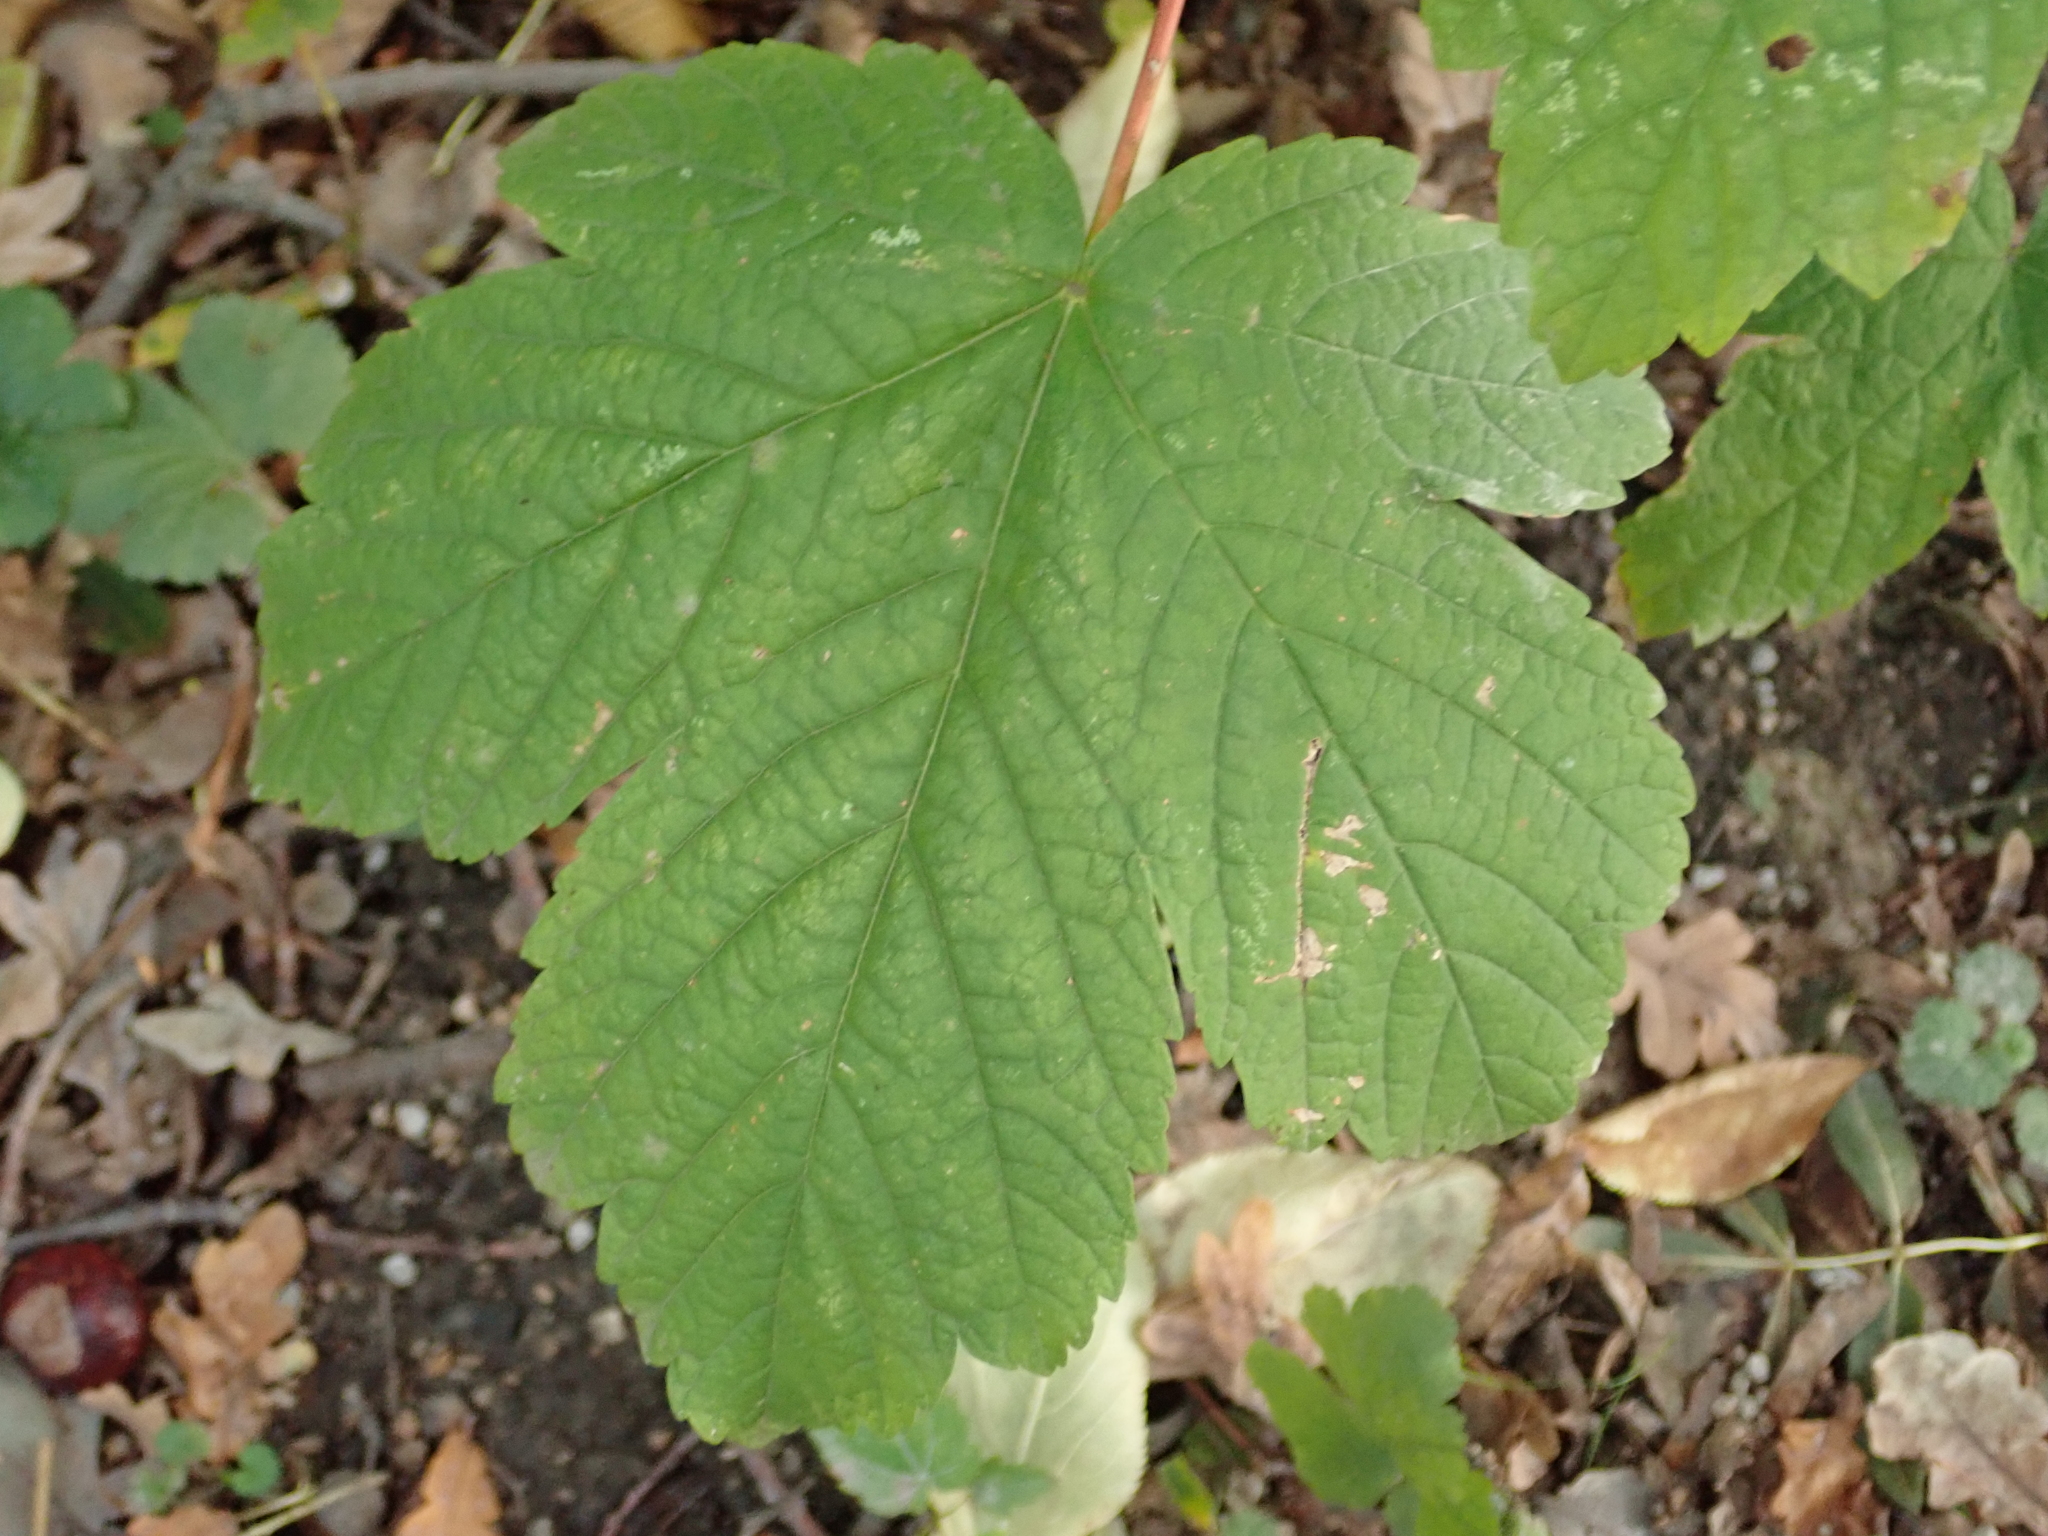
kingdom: Plantae
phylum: Tracheophyta
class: Magnoliopsida
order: Sapindales
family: Sapindaceae
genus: Acer
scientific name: Acer pseudoplatanus
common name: Sycamore
